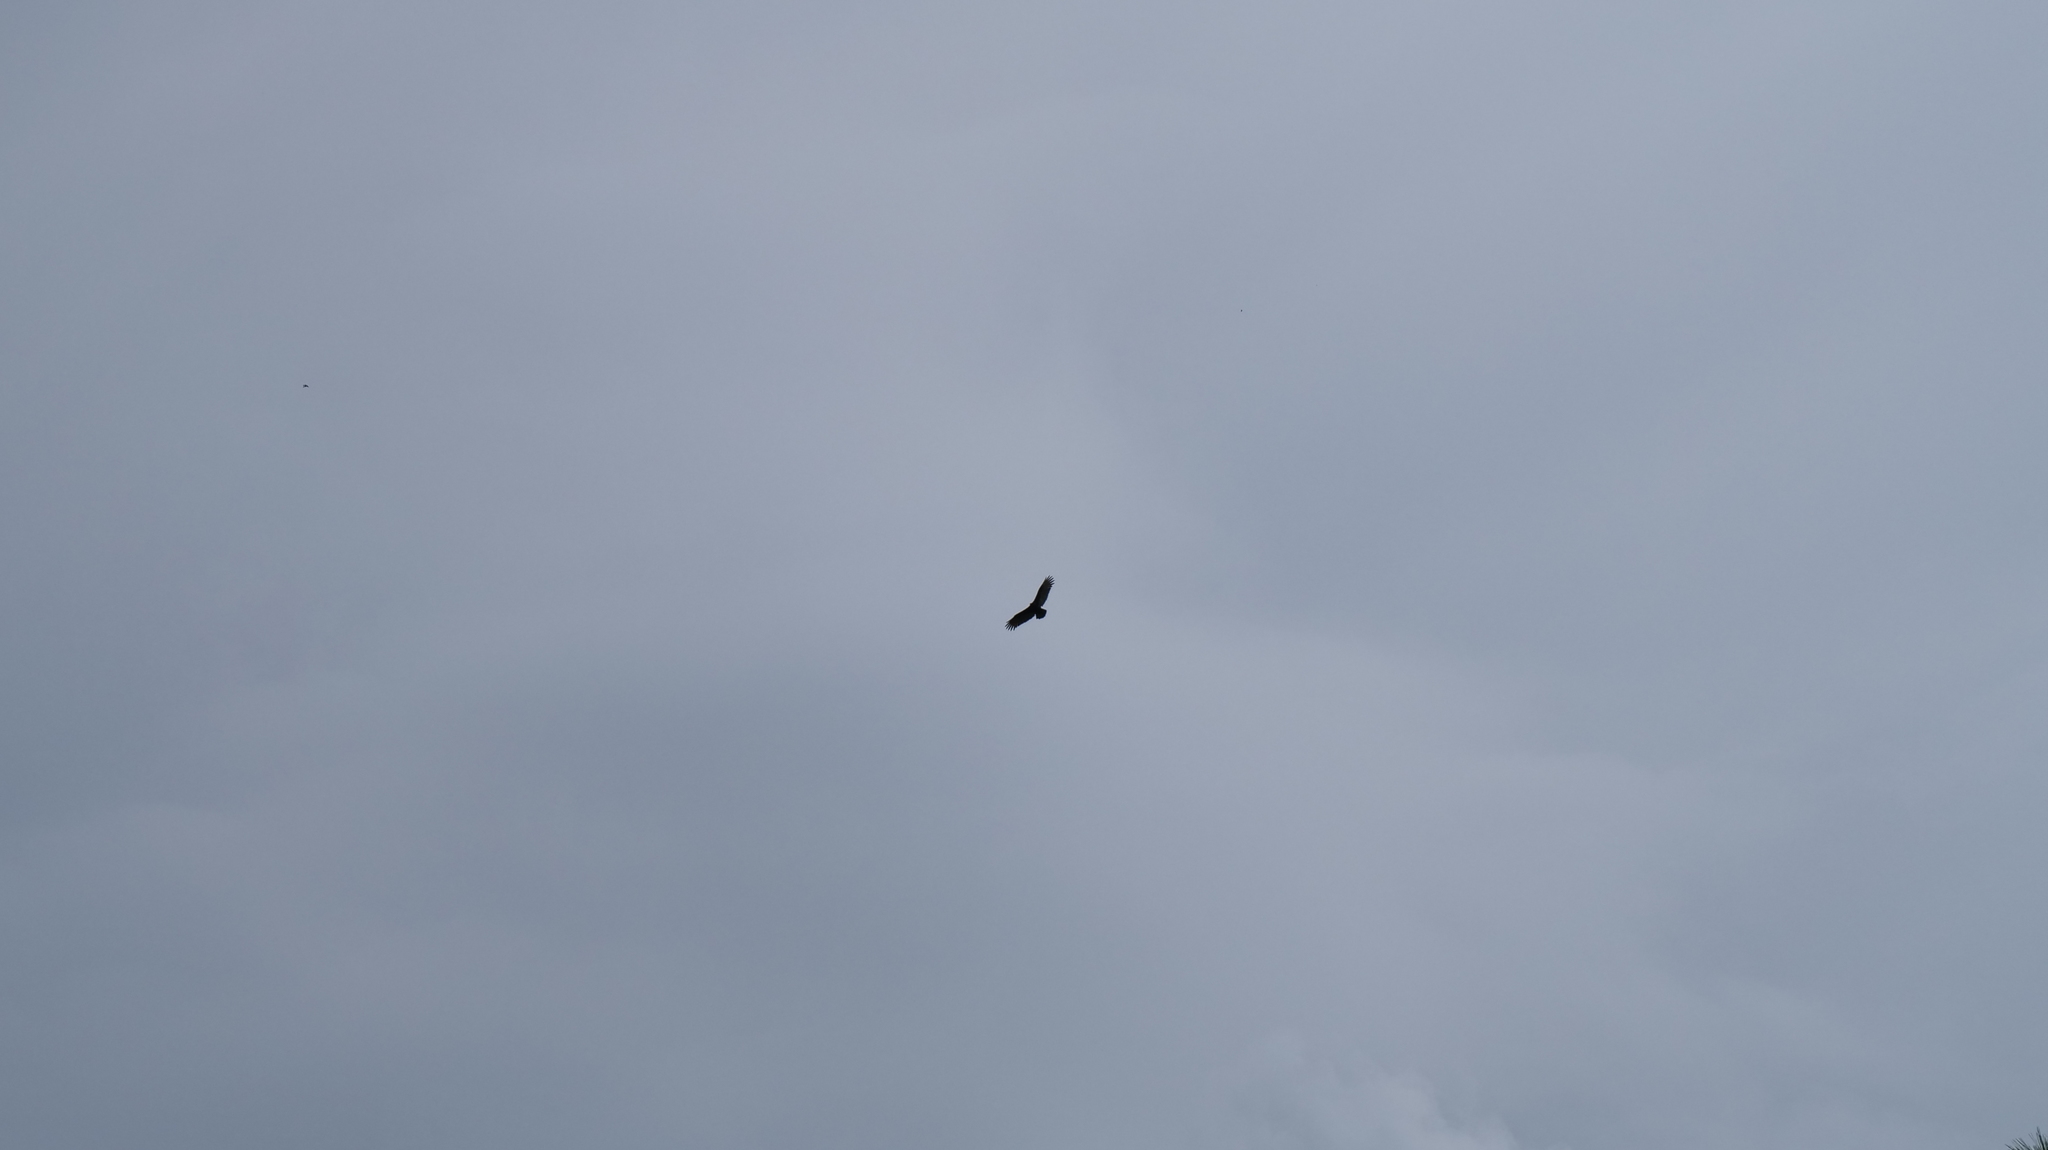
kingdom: Animalia
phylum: Chordata
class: Aves
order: Accipitriformes
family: Cathartidae
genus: Coragyps
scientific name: Coragyps atratus
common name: Black vulture
